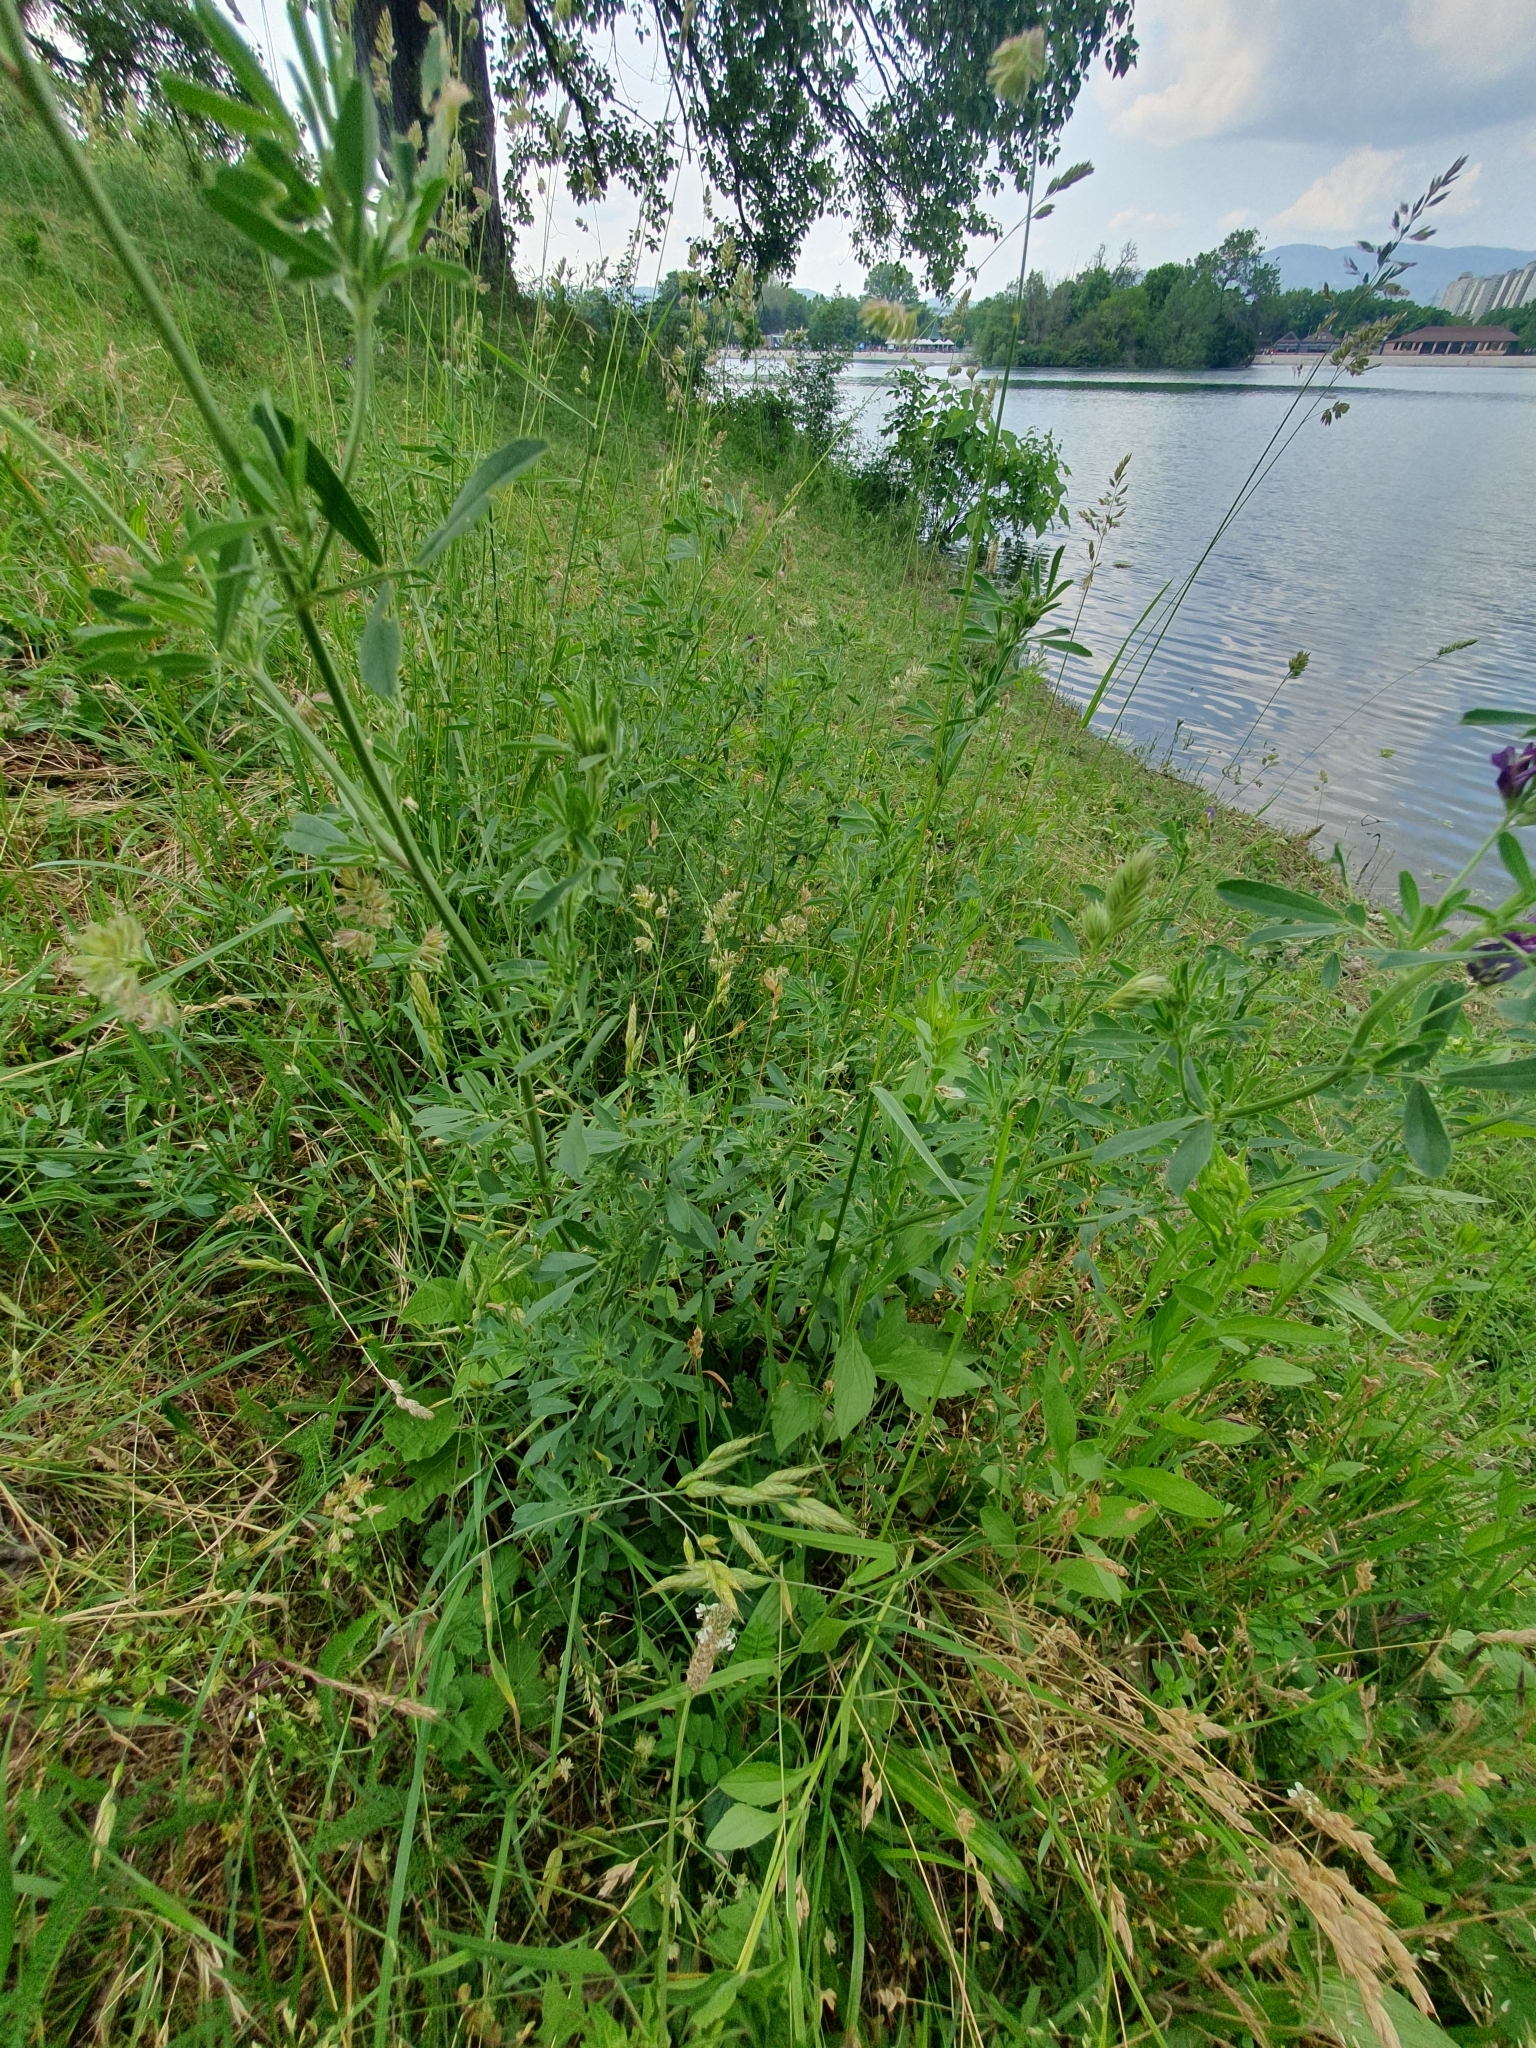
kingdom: Plantae
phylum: Tracheophyta
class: Magnoliopsida
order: Fabales
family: Fabaceae
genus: Medicago
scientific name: Medicago sativa
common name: Alfalfa
